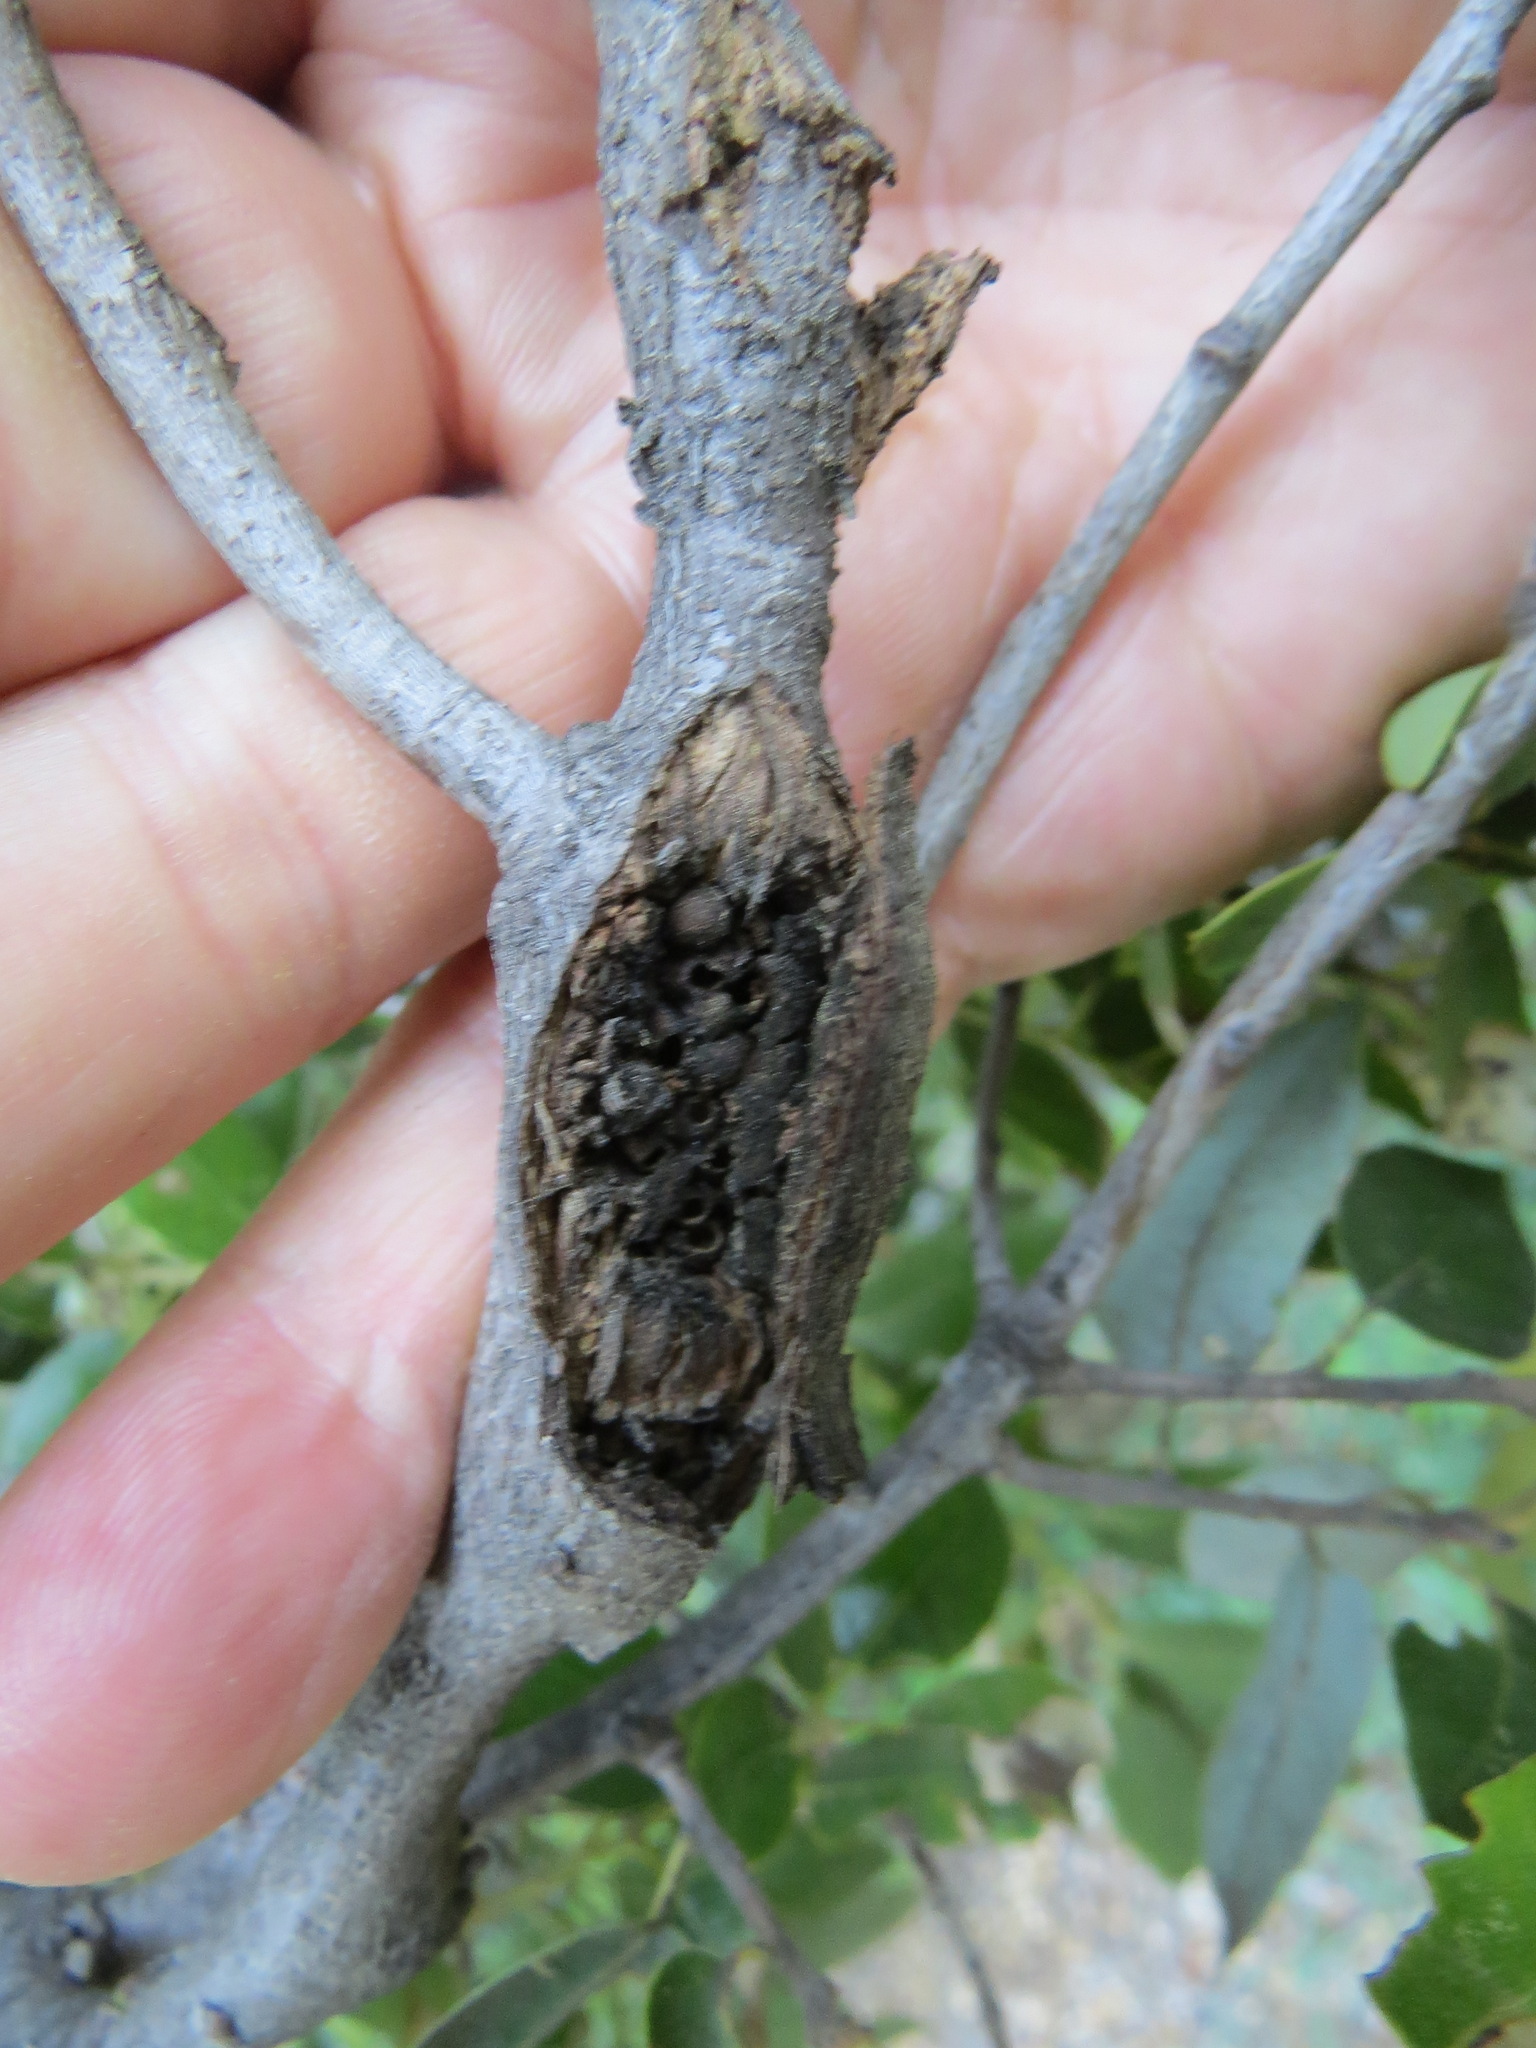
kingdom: Animalia
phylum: Arthropoda
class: Insecta
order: Hymenoptera
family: Cynipidae
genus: Dryocosmus
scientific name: Dryocosmus
